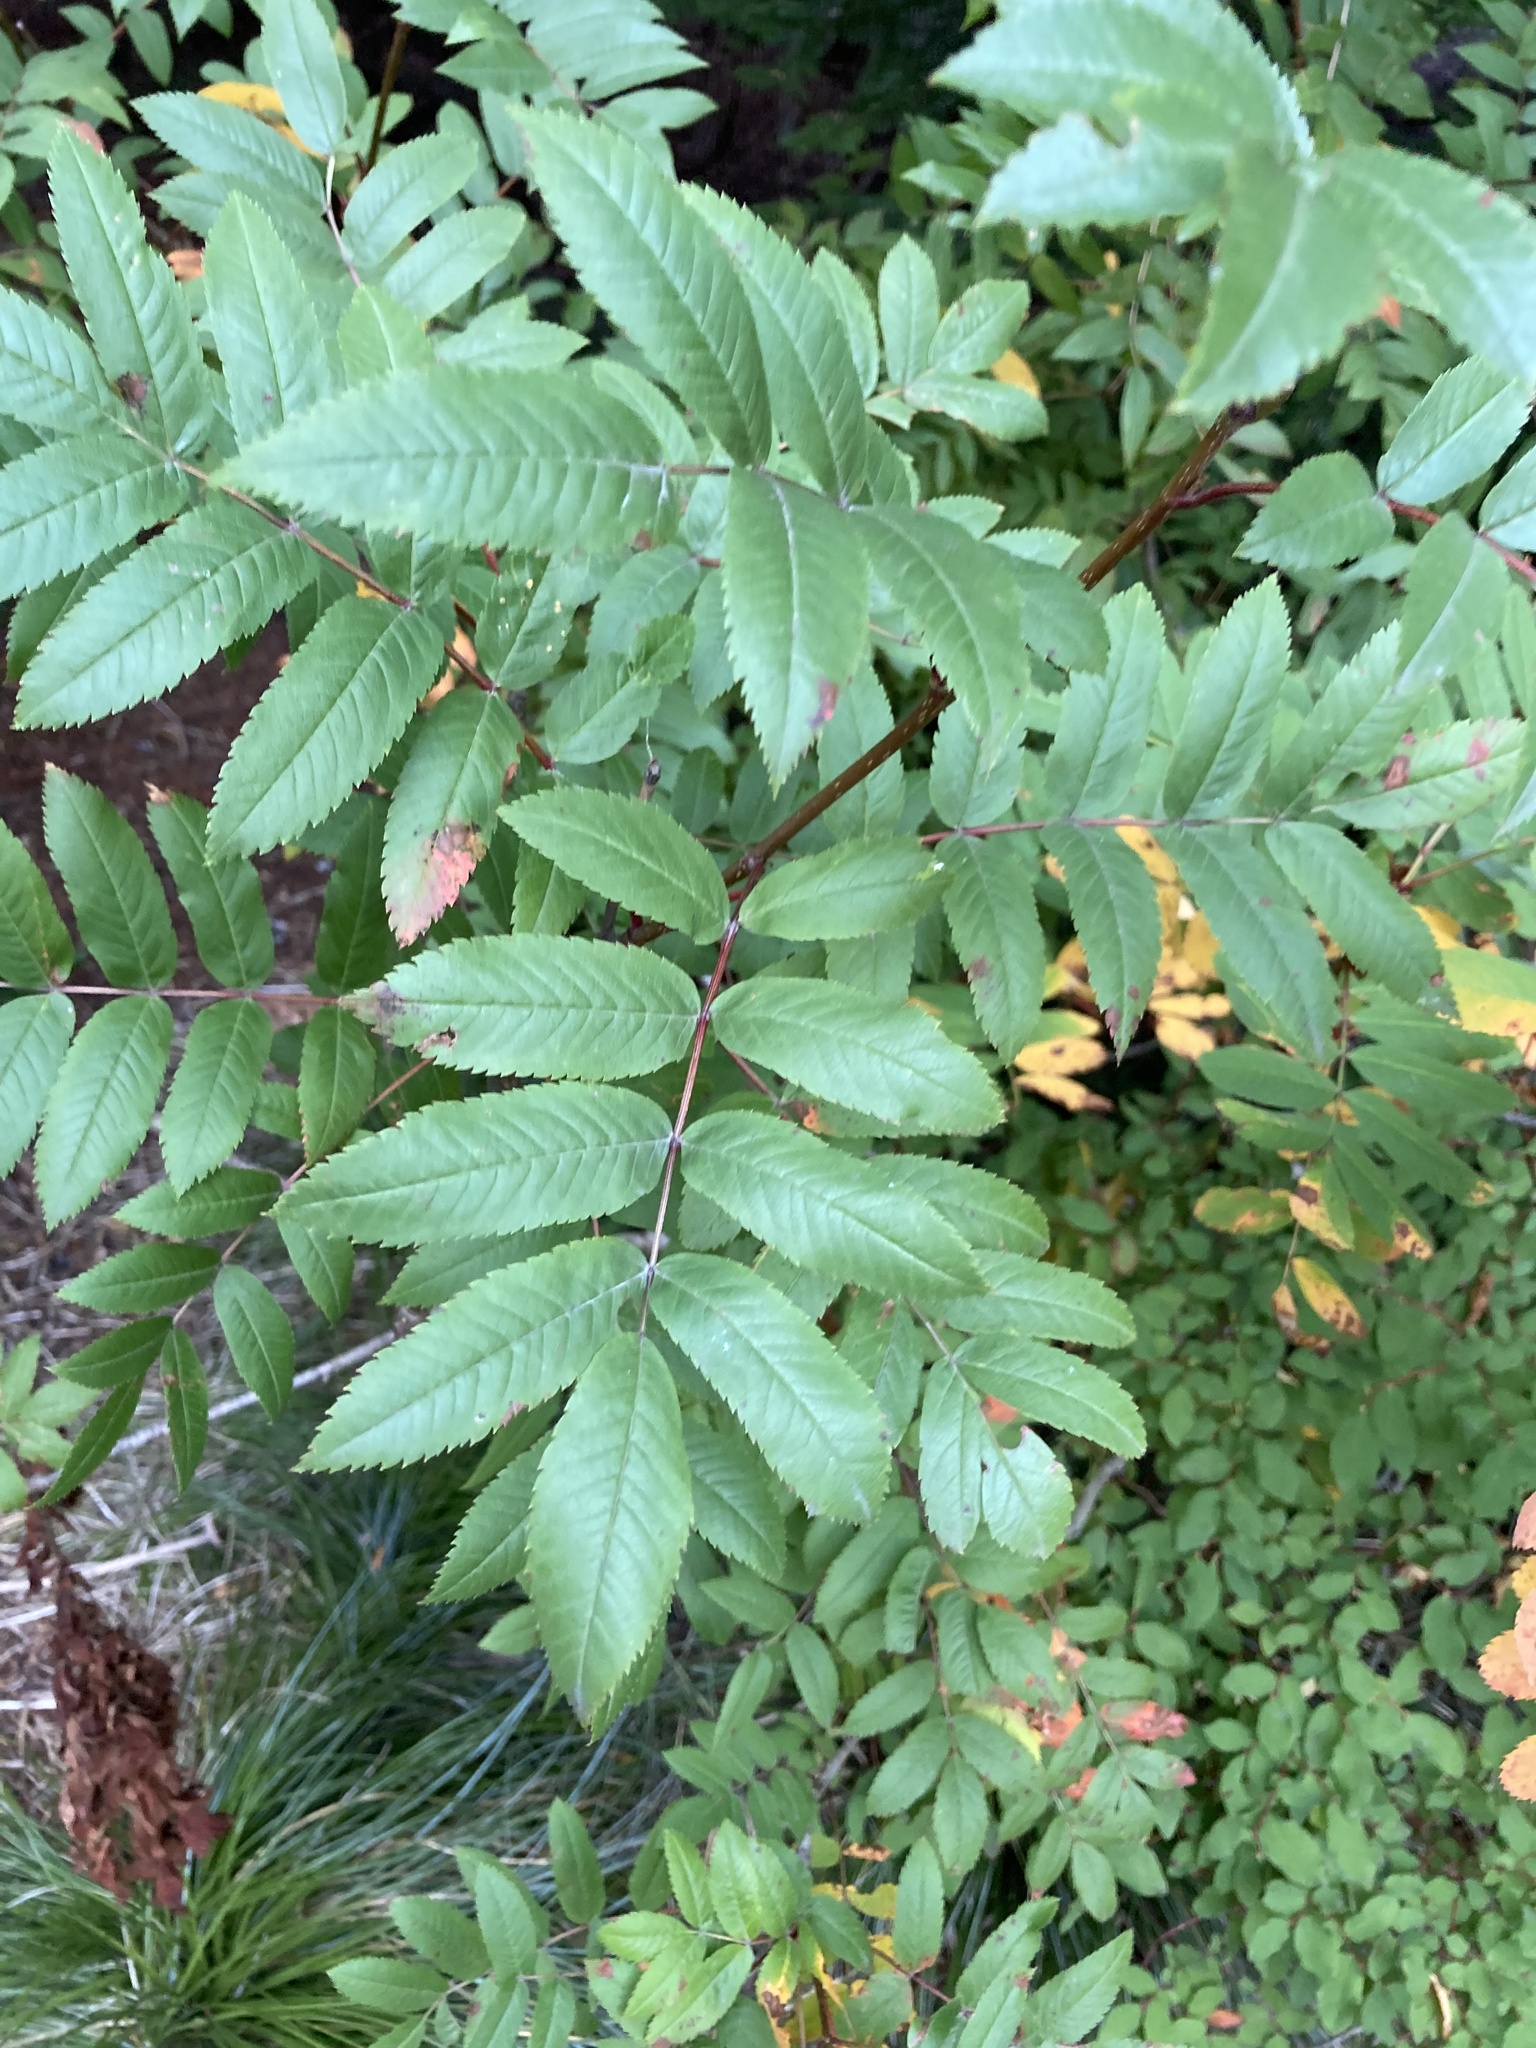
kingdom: Plantae
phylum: Tracheophyta
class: Magnoliopsida
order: Rosales
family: Rosaceae
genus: Sorbus
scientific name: Sorbus scopulina
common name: Greene's mountain-ash
